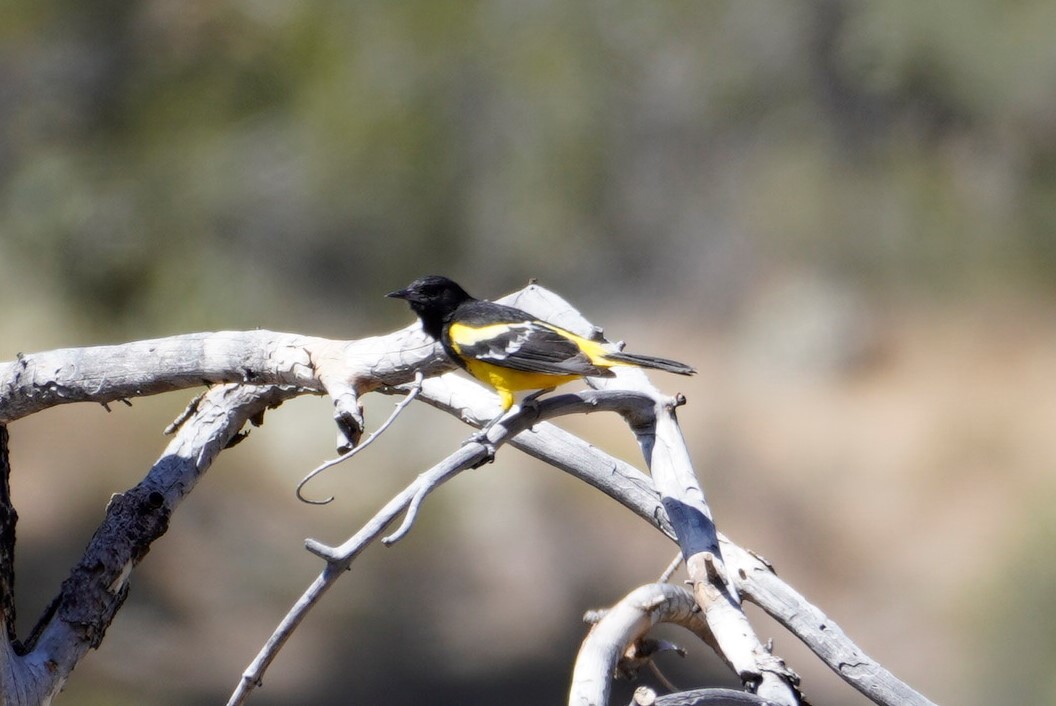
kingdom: Animalia
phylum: Chordata
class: Aves
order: Passeriformes
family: Icteridae
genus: Icterus
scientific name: Icterus parisorum
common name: Scott's oriole
